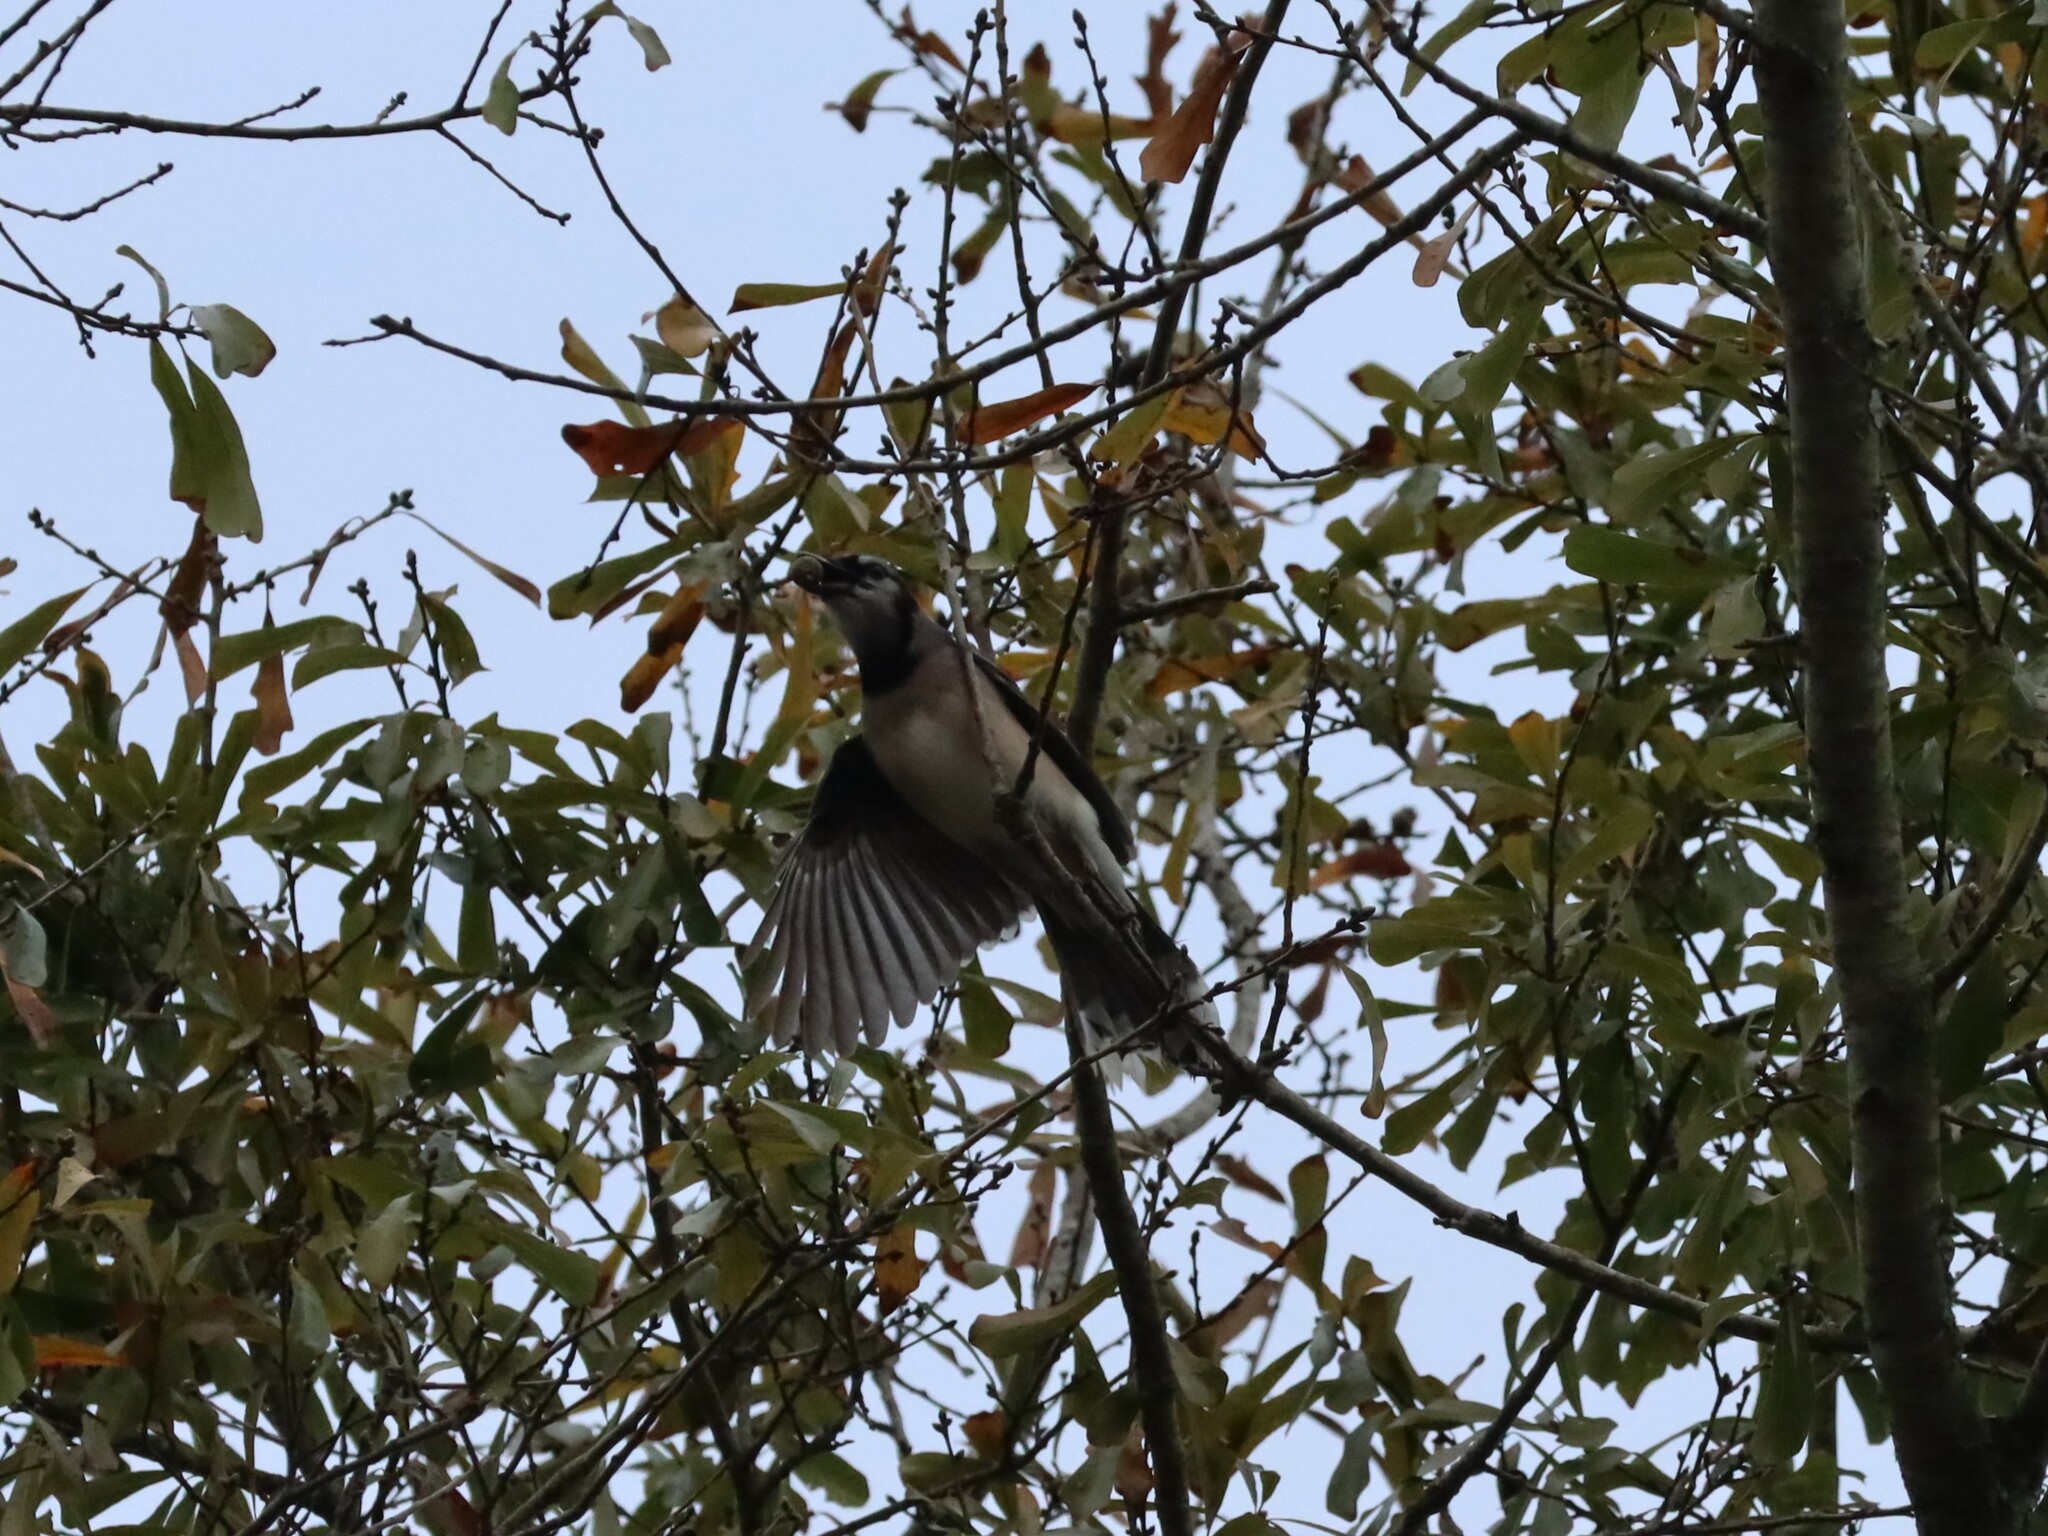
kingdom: Animalia
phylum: Chordata
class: Aves
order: Passeriformes
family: Corvidae
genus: Cyanocitta
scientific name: Cyanocitta cristata
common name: Blue jay
